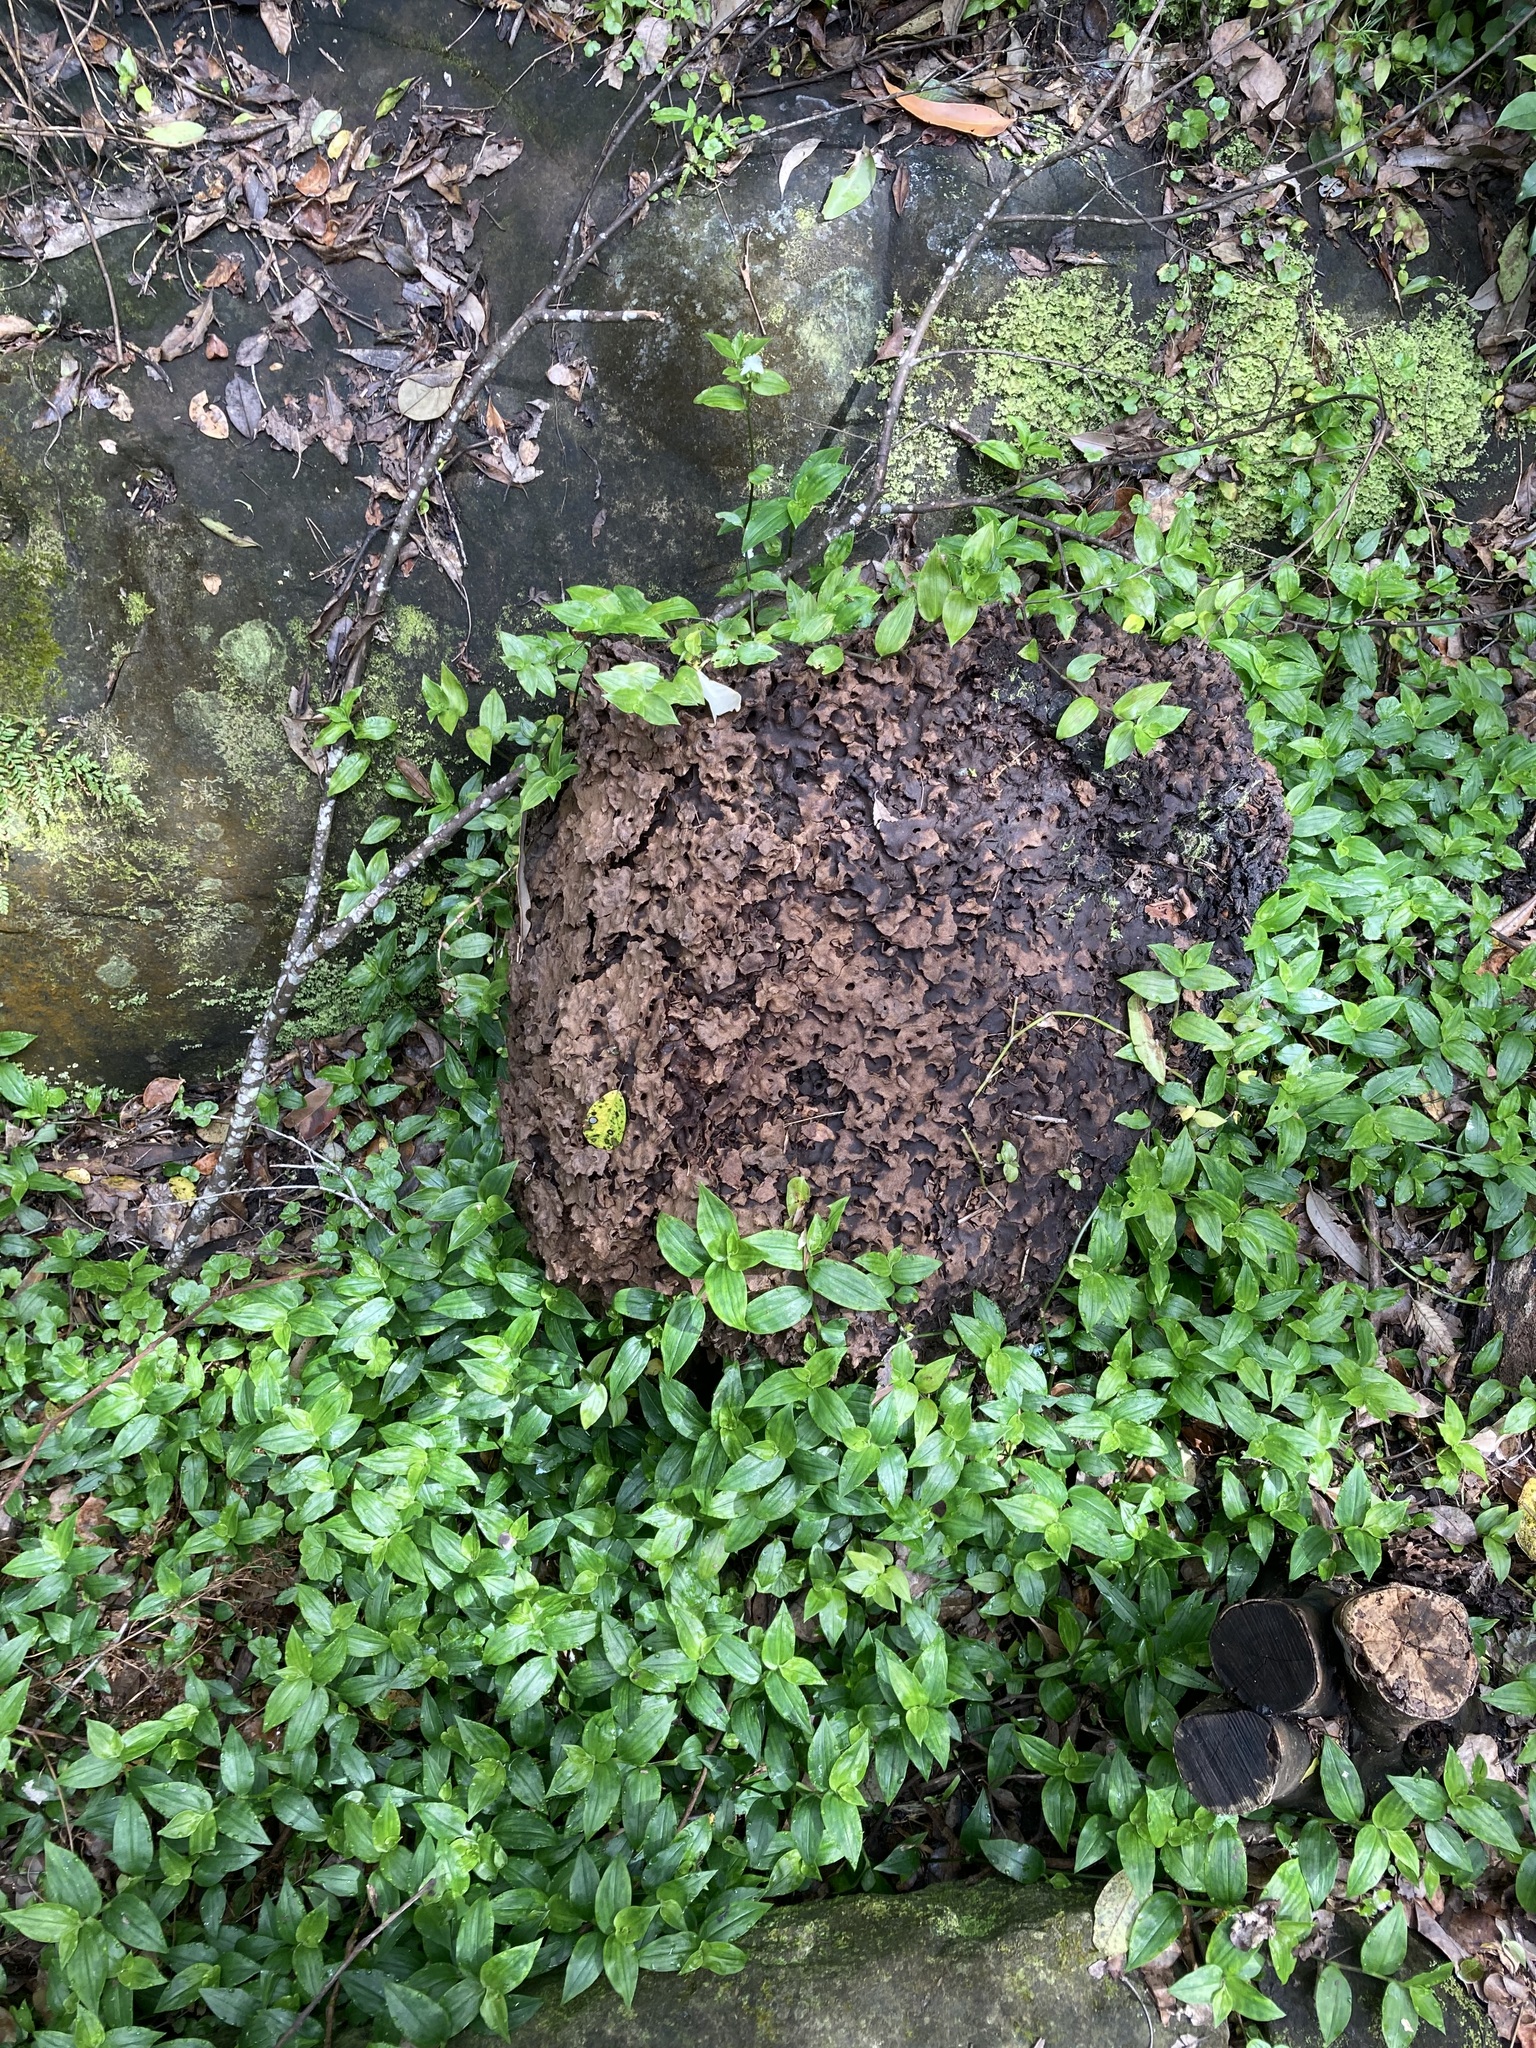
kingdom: Plantae
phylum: Tracheophyta
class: Liliopsida
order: Commelinales
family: Commelinaceae
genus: Tradescantia
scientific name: Tradescantia fluminensis
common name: Wandering-jew
